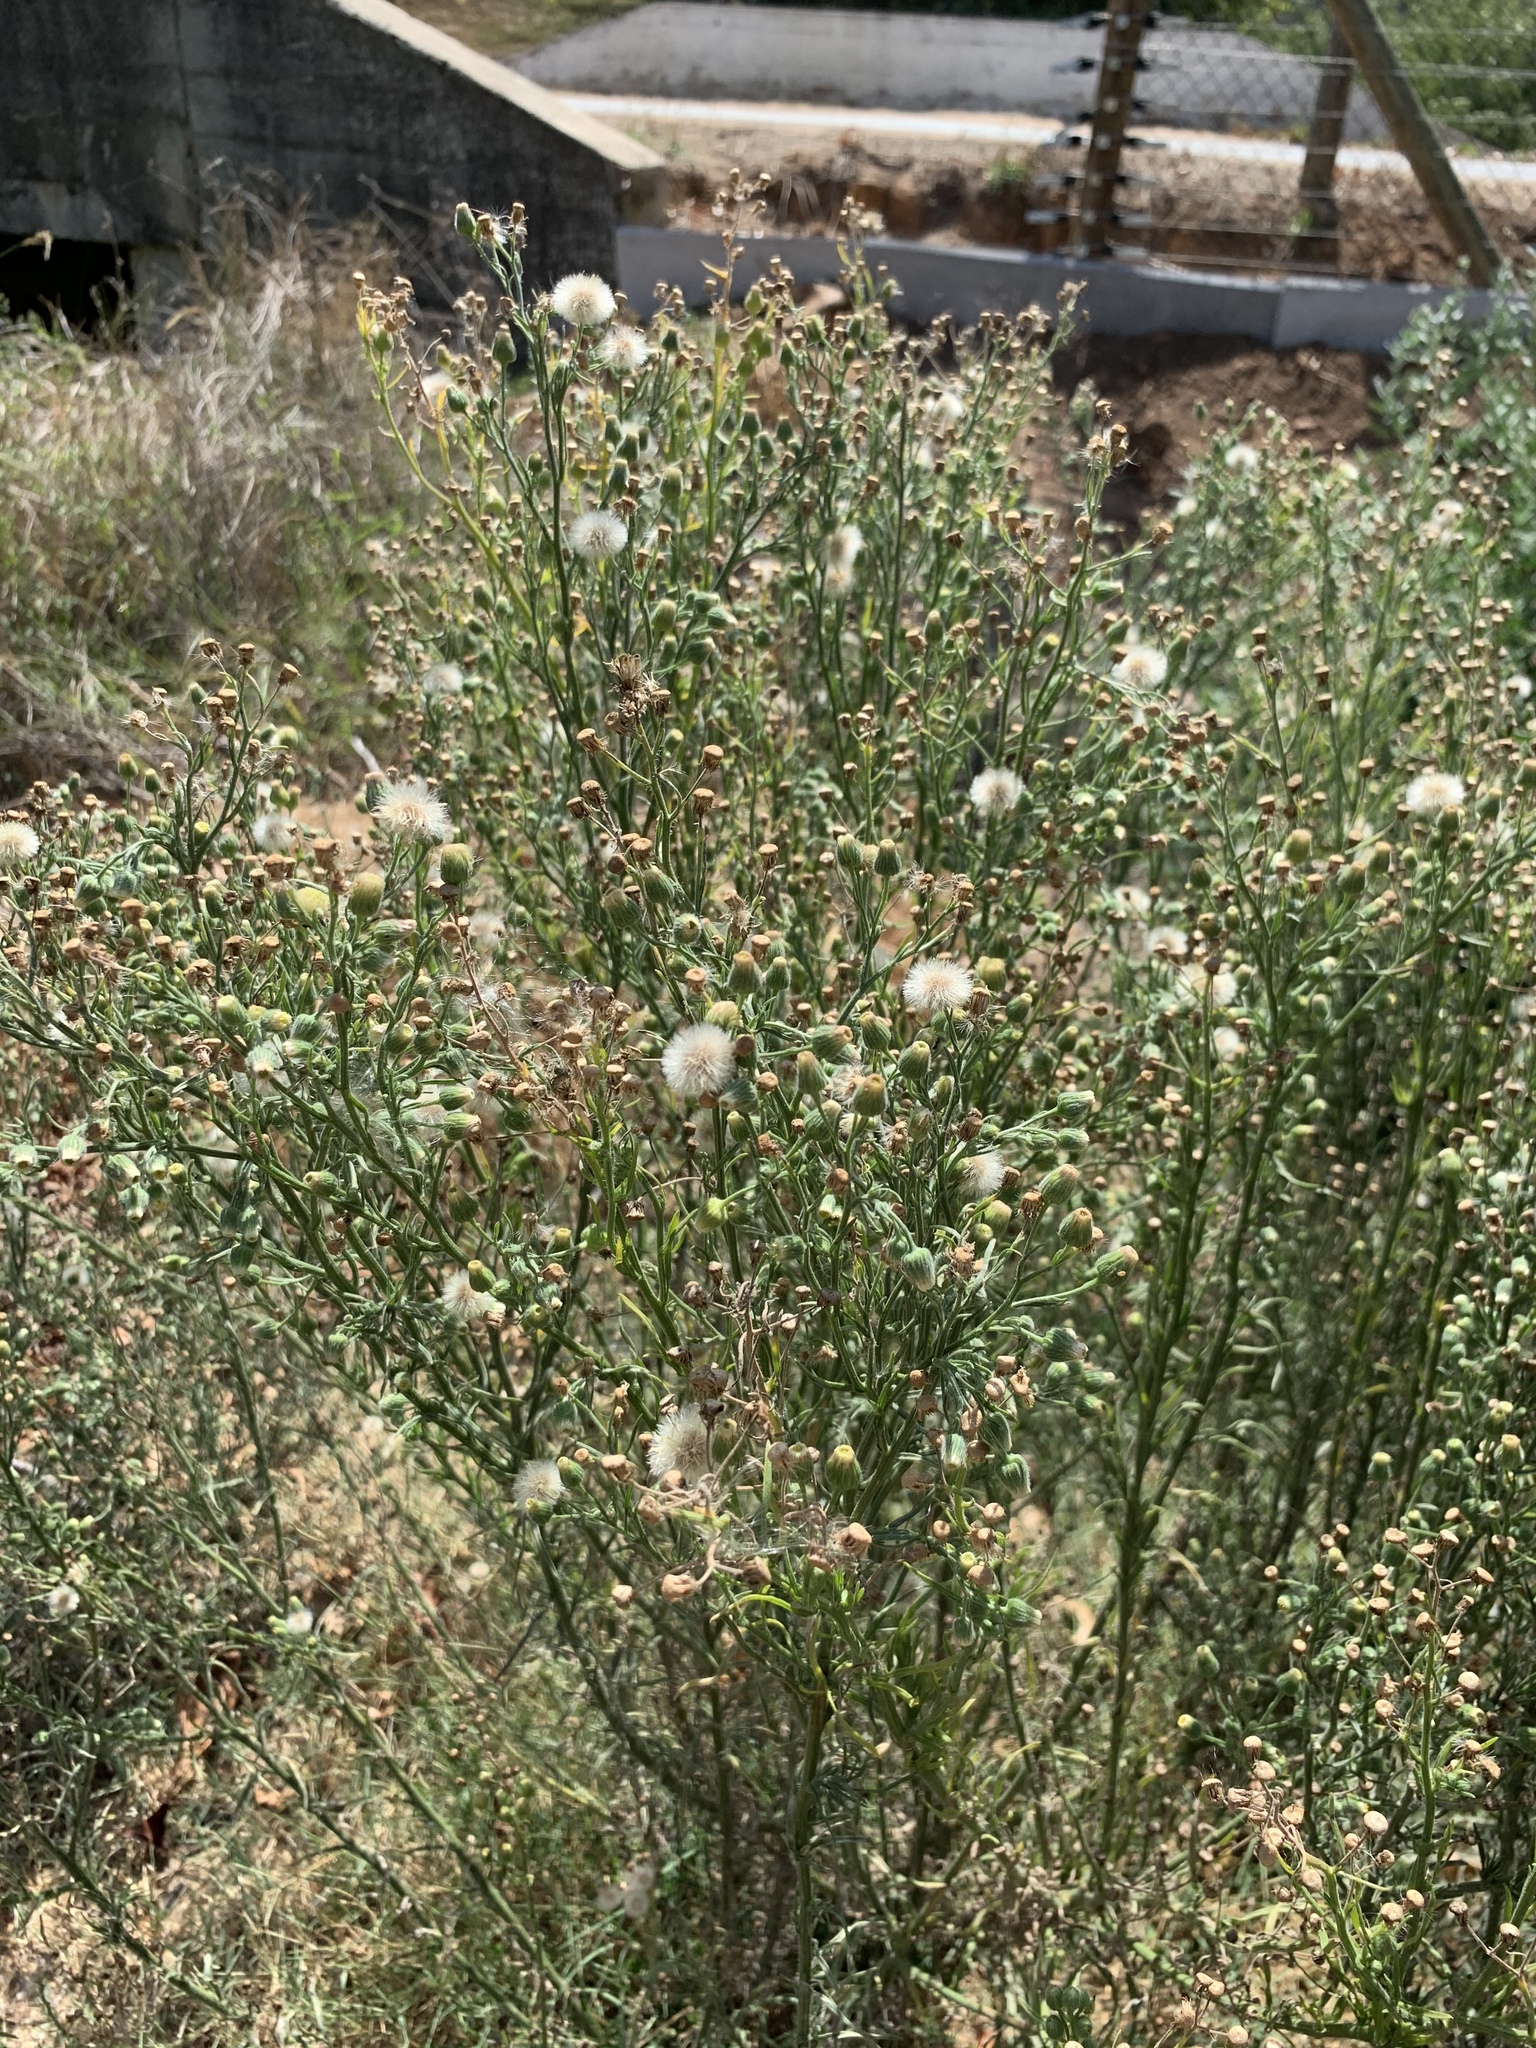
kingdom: Plantae
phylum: Tracheophyta
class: Magnoliopsida
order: Asterales
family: Asteraceae
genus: Erigeron
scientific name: Erigeron bonariensis
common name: Argentine fleabane
